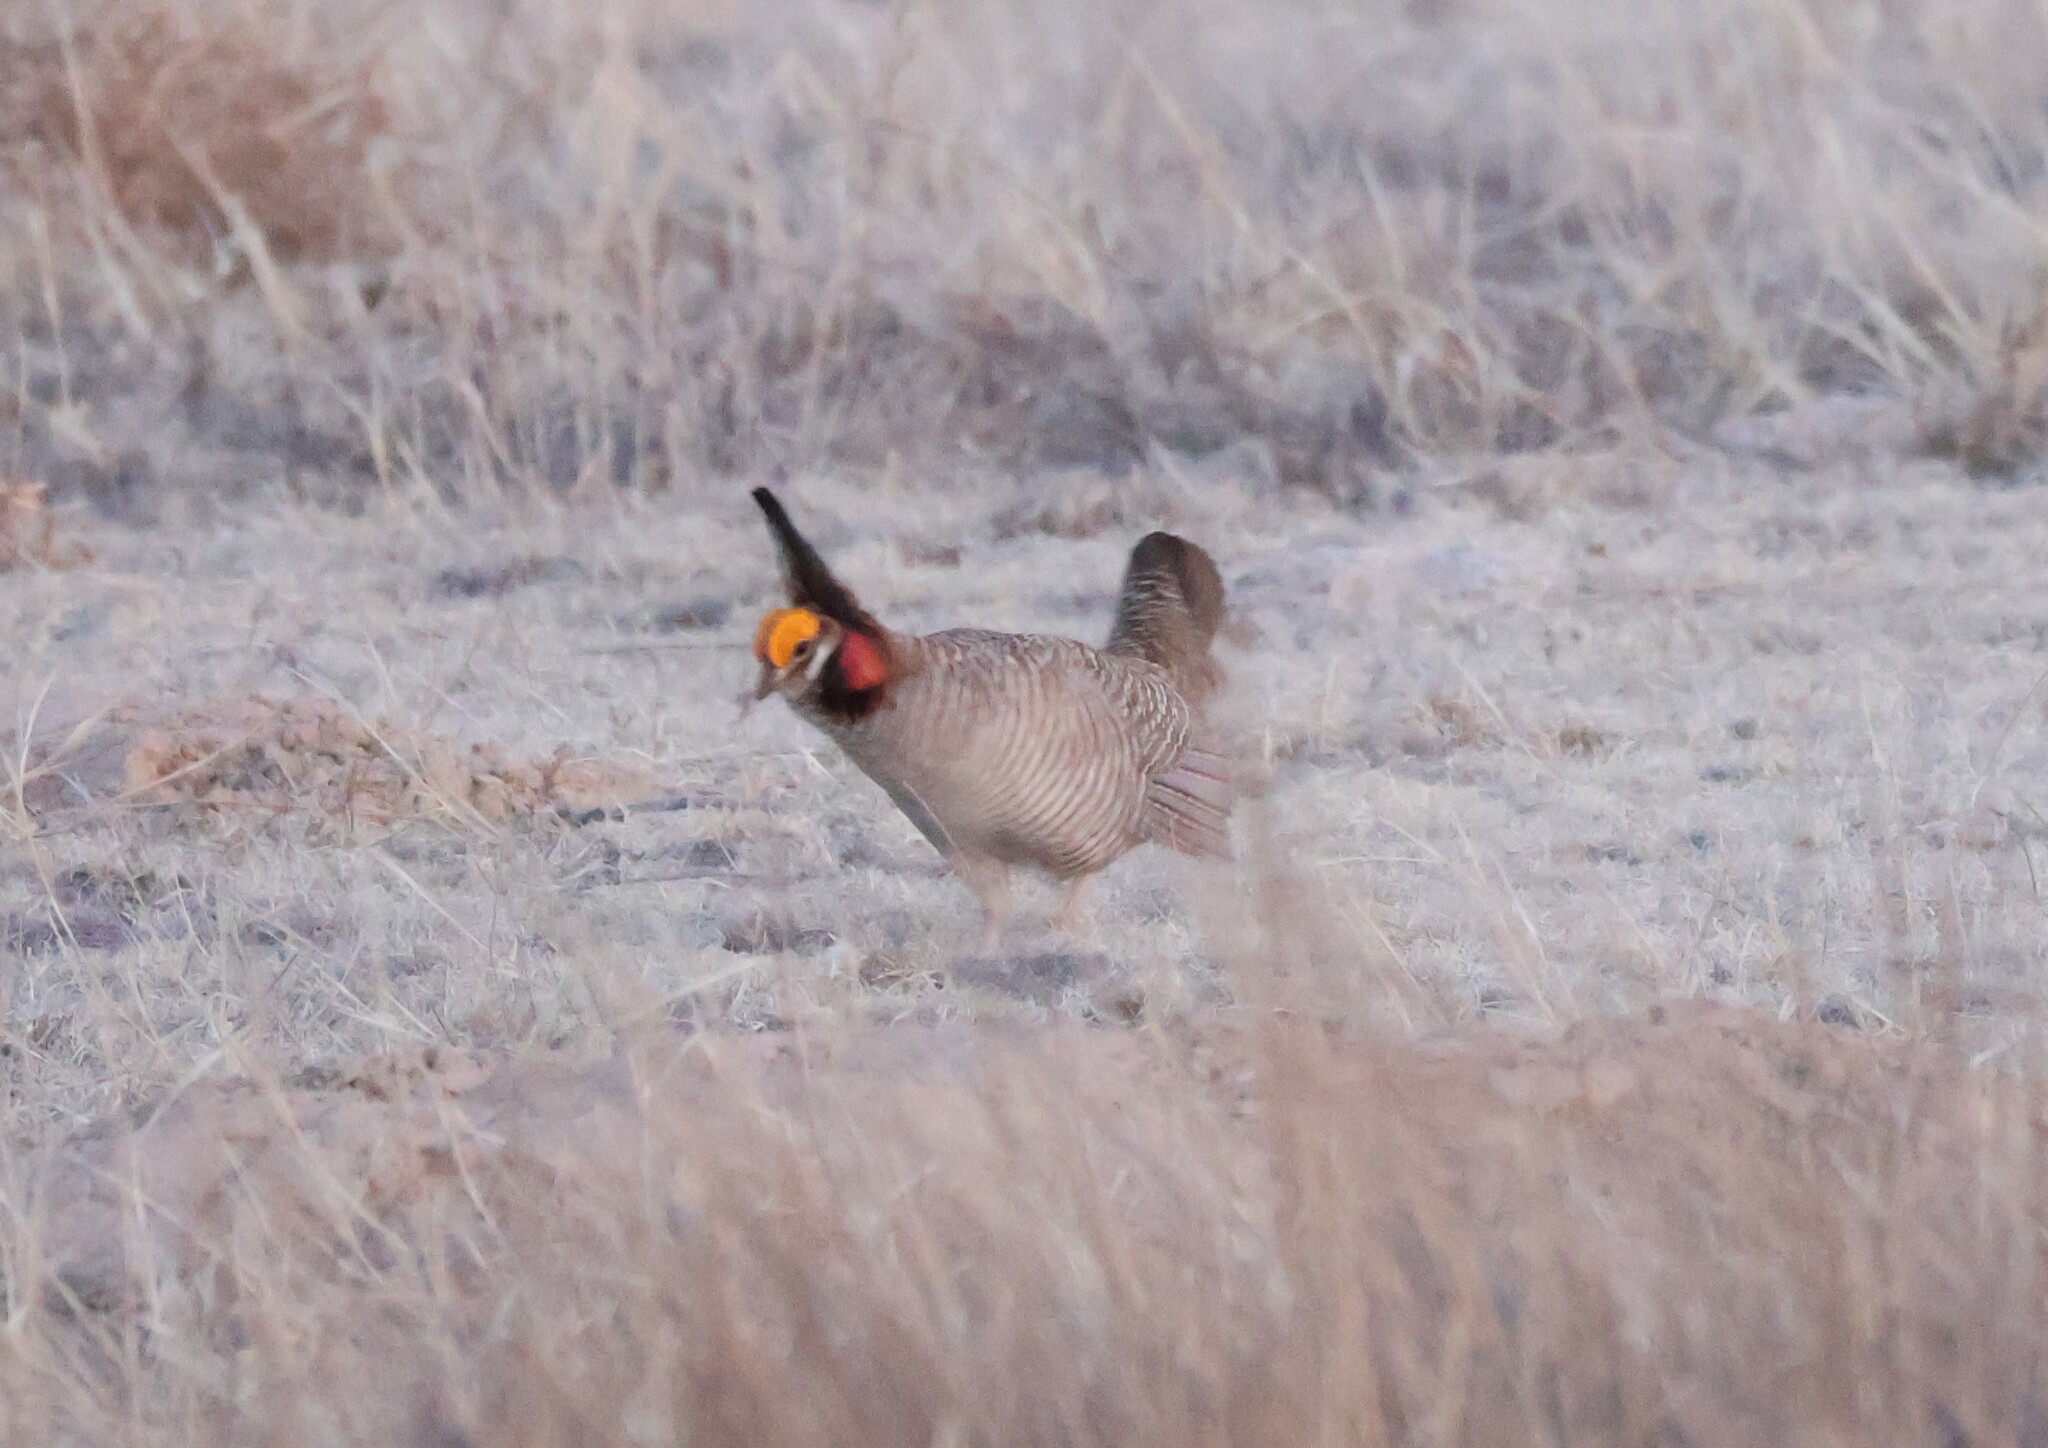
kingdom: Animalia
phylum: Chordata
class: Aves
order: Galliformes
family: Phasianidae
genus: Tympanuchus
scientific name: Tympanuchus pallidicinctus
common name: Lesser prairie chicken
